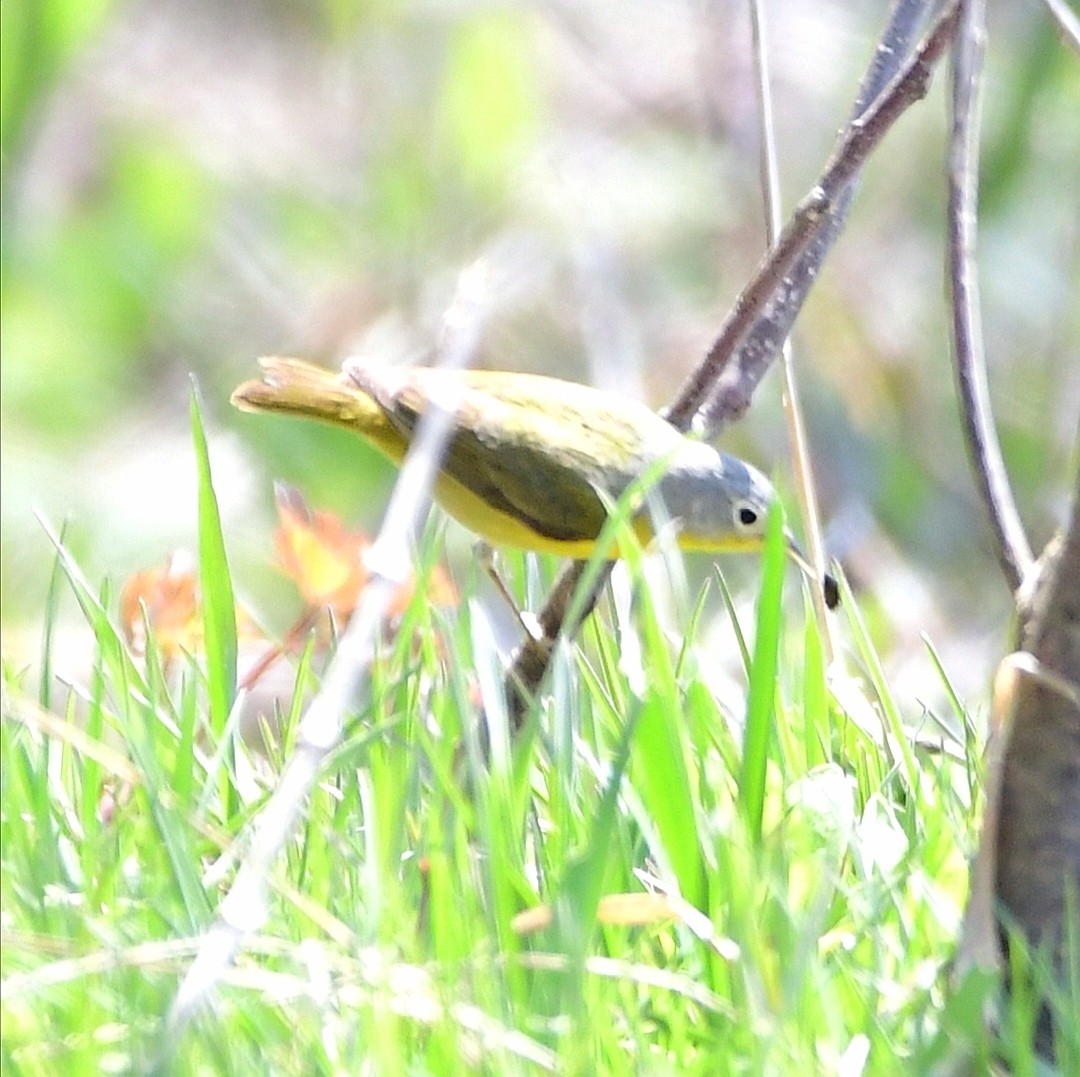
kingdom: Animalia
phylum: Chordata
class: Aves
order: Passeriformes
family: Parulidae
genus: Leiothlypis
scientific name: Leiothlypis ruficapilla
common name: Nashville warbler
